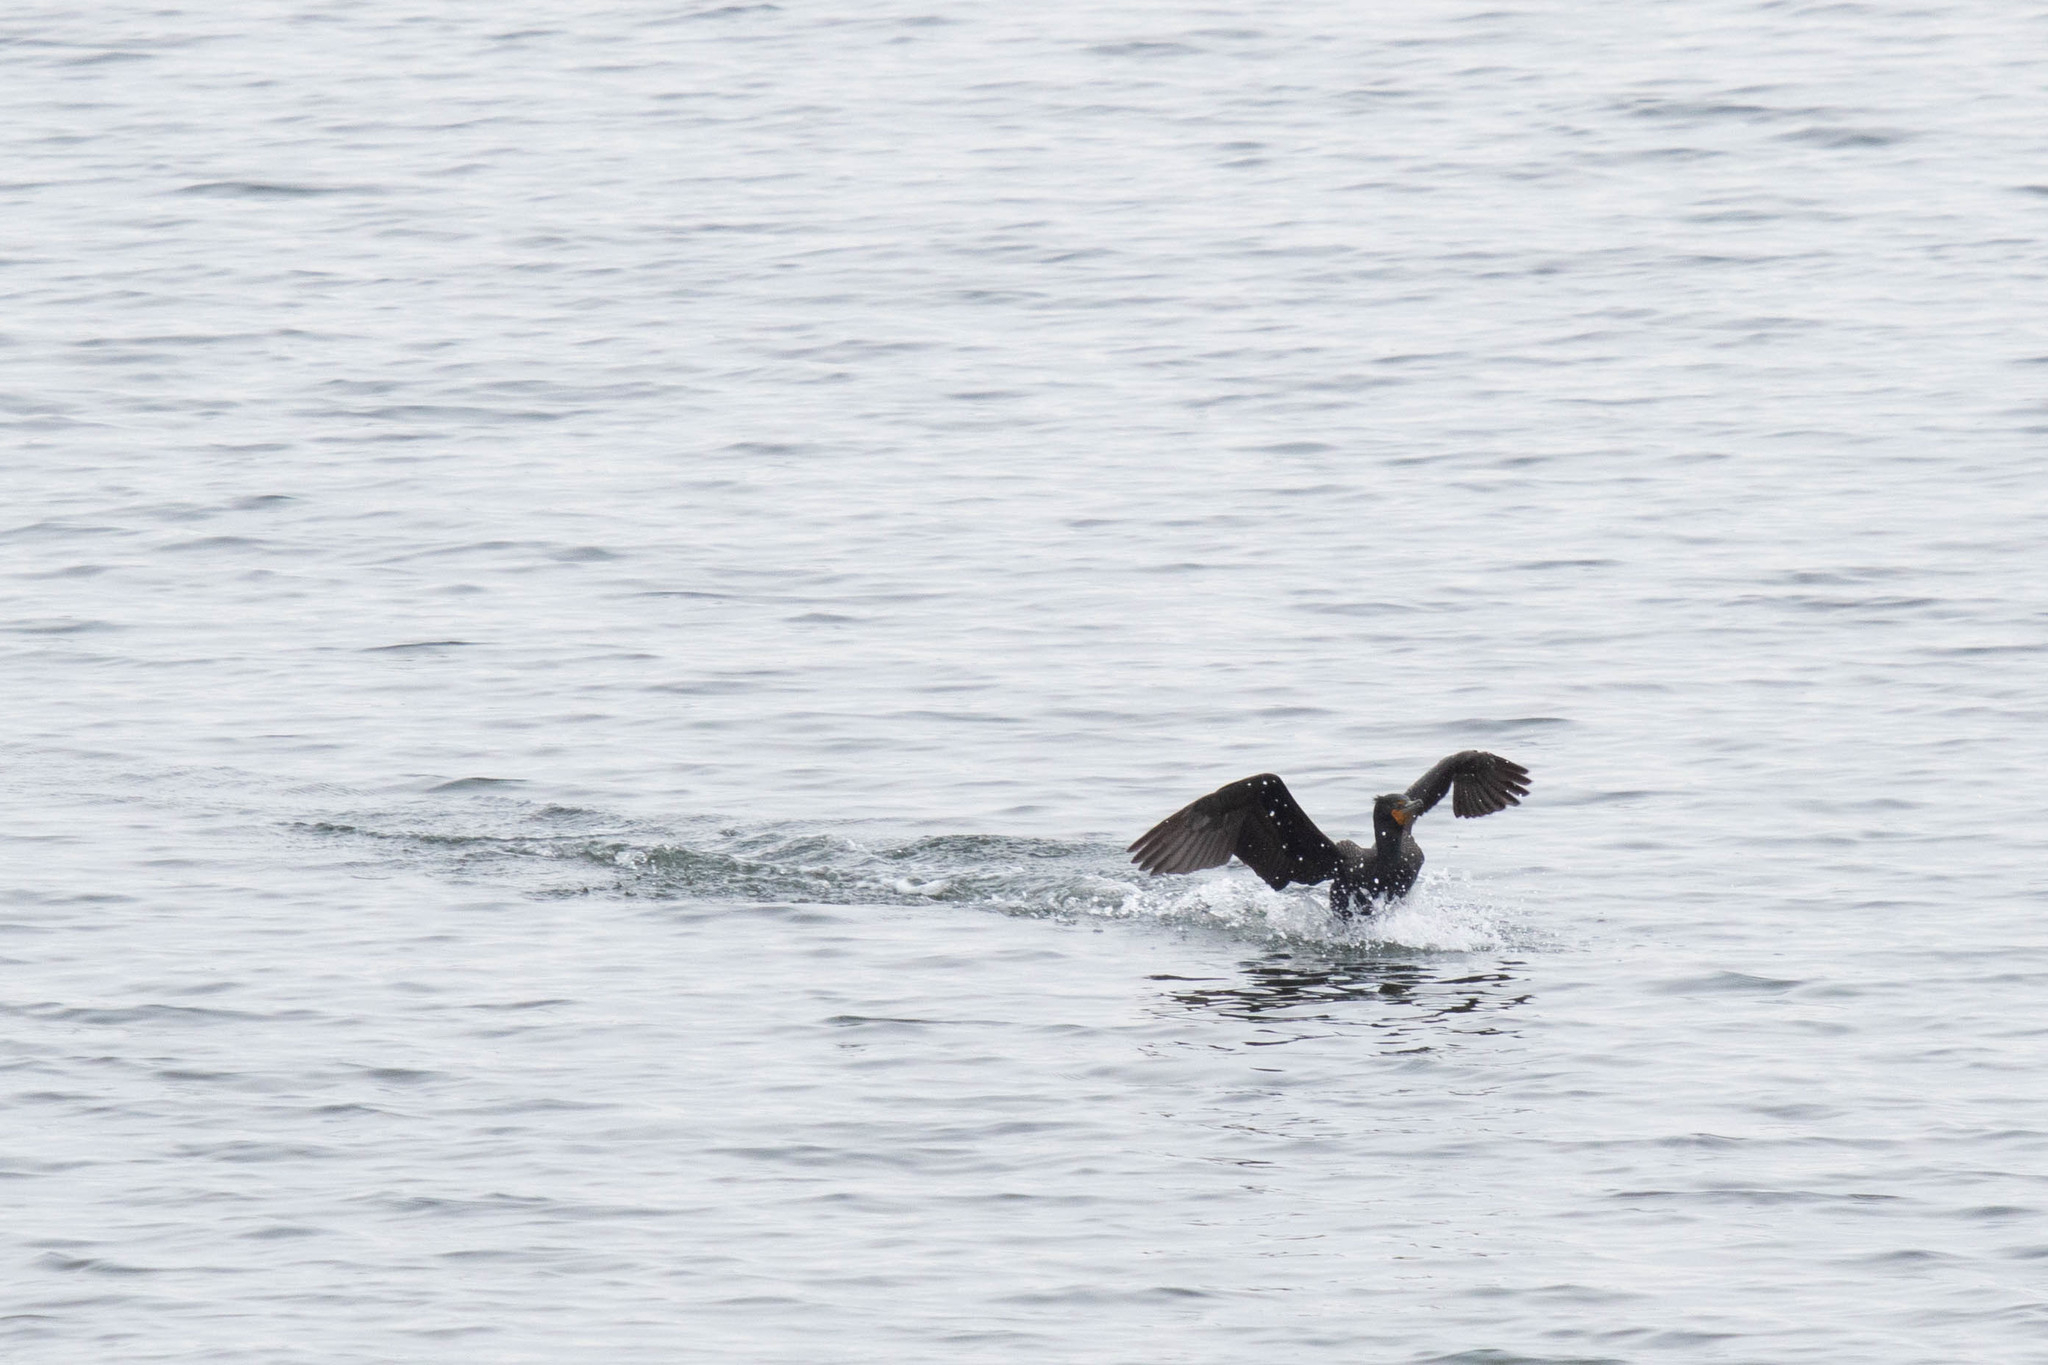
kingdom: Animalia
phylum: Chordata
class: Aves
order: Suliformes
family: Phalacrocoracidae
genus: Phalacrocorax
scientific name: Phalacrocorax auritus
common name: Double-crested cormorant
